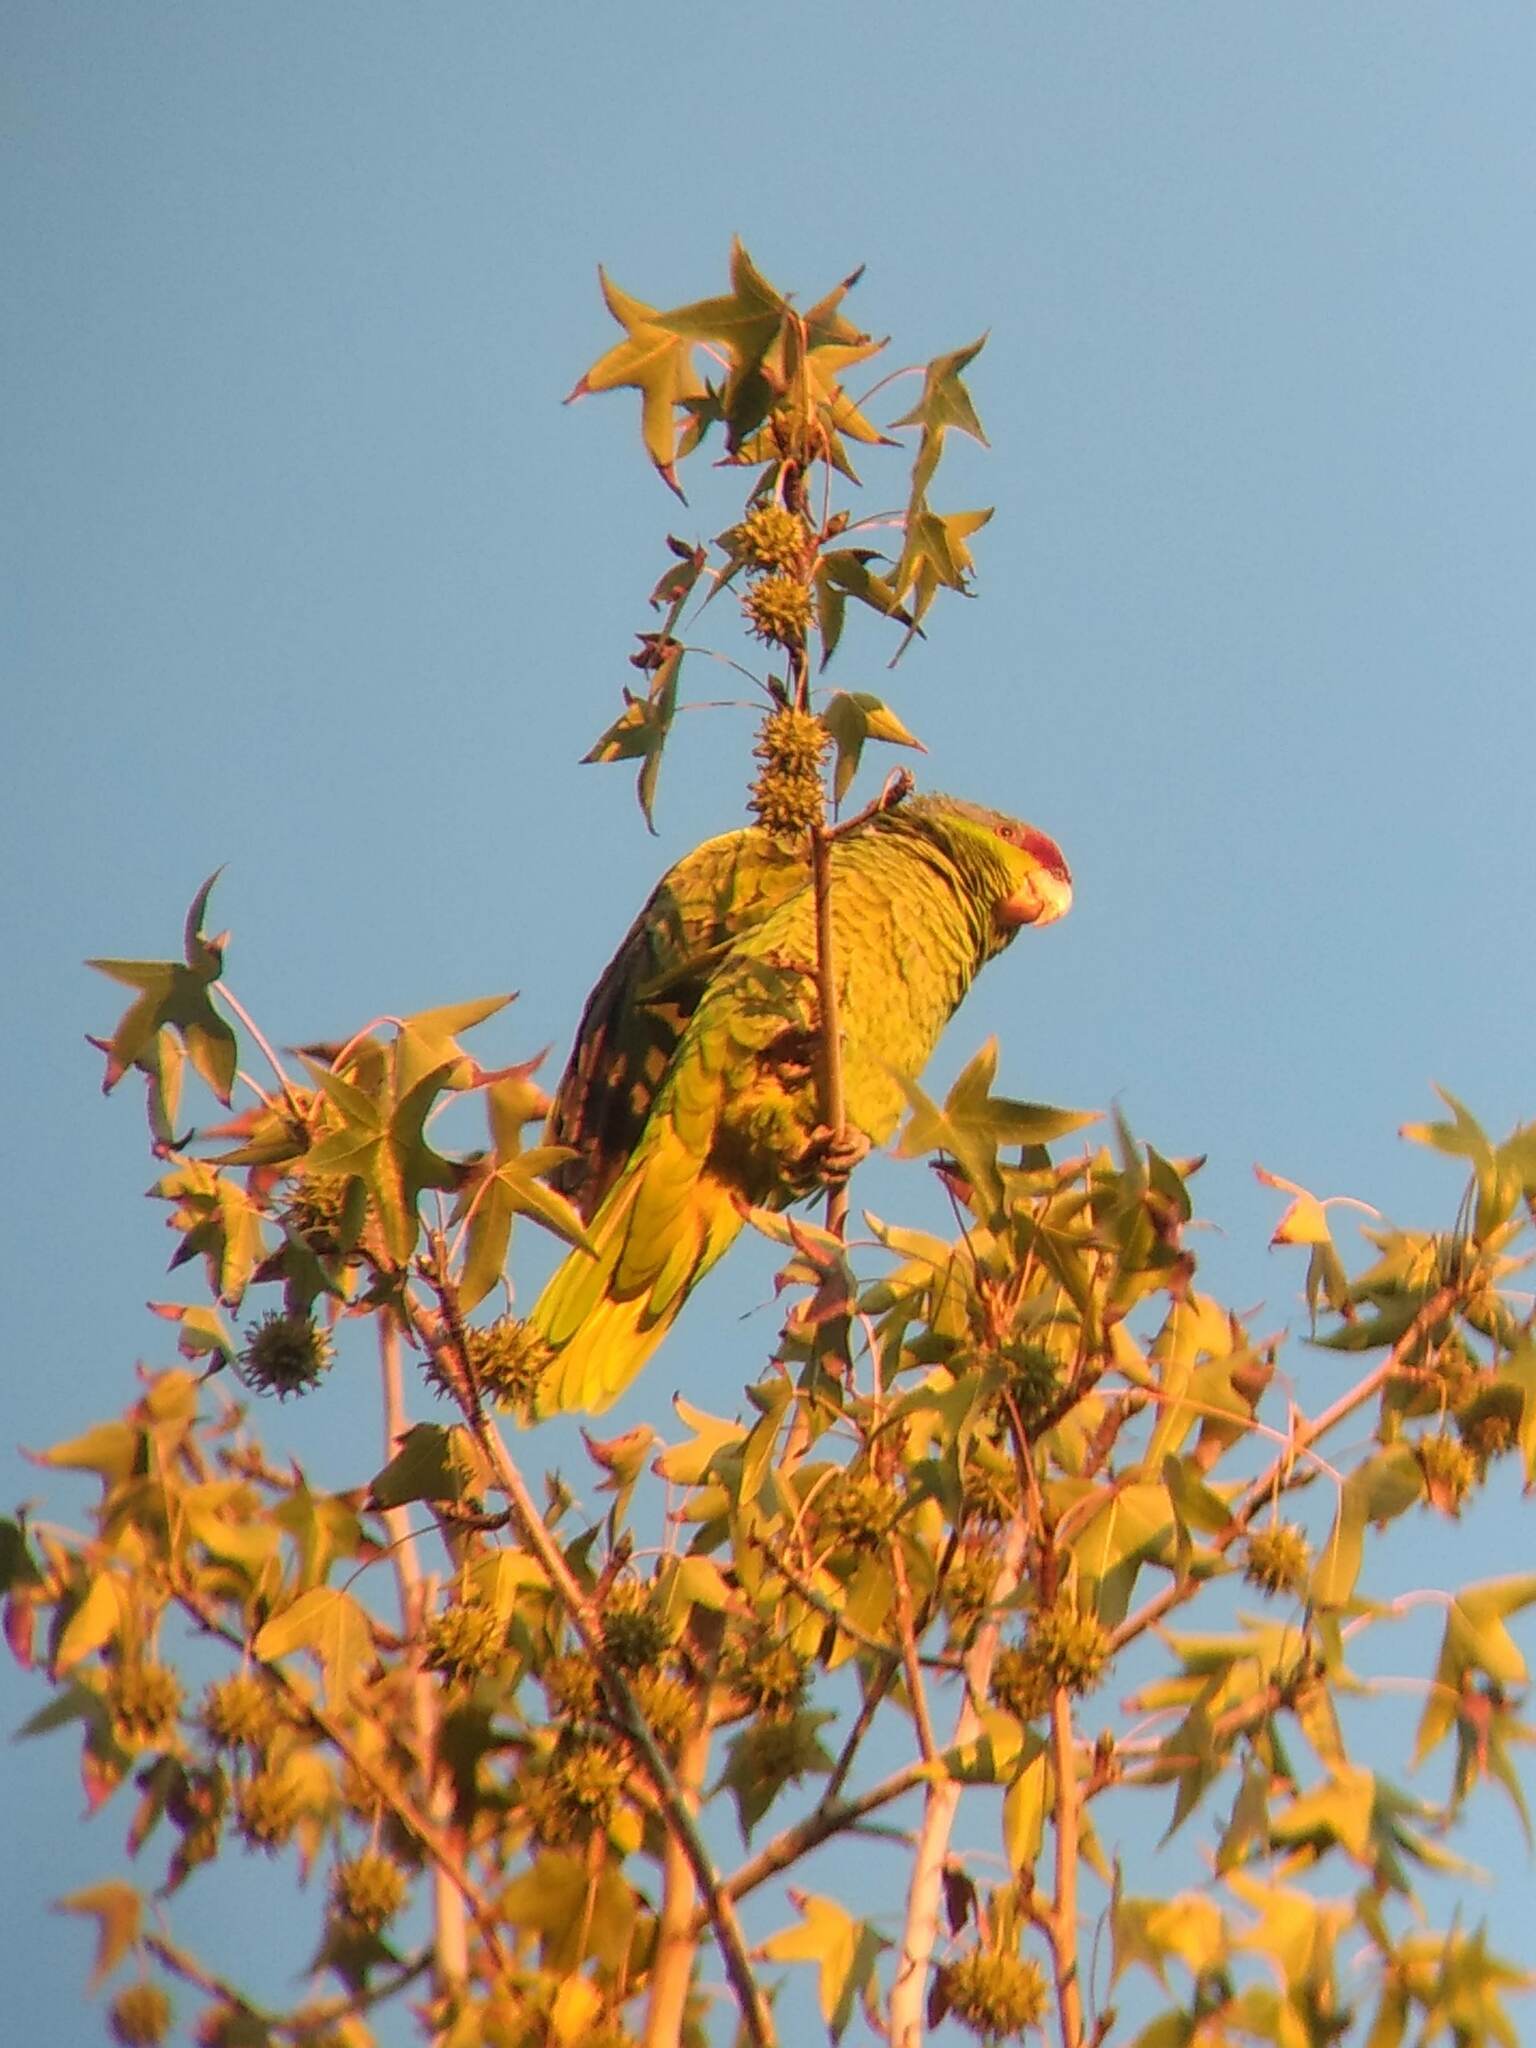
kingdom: Animalia
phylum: Chordata
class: Aves
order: Psittaciformes
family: Psittacidae
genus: Amazona
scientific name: Amazona finschi
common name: Lilac-crowned amazon
